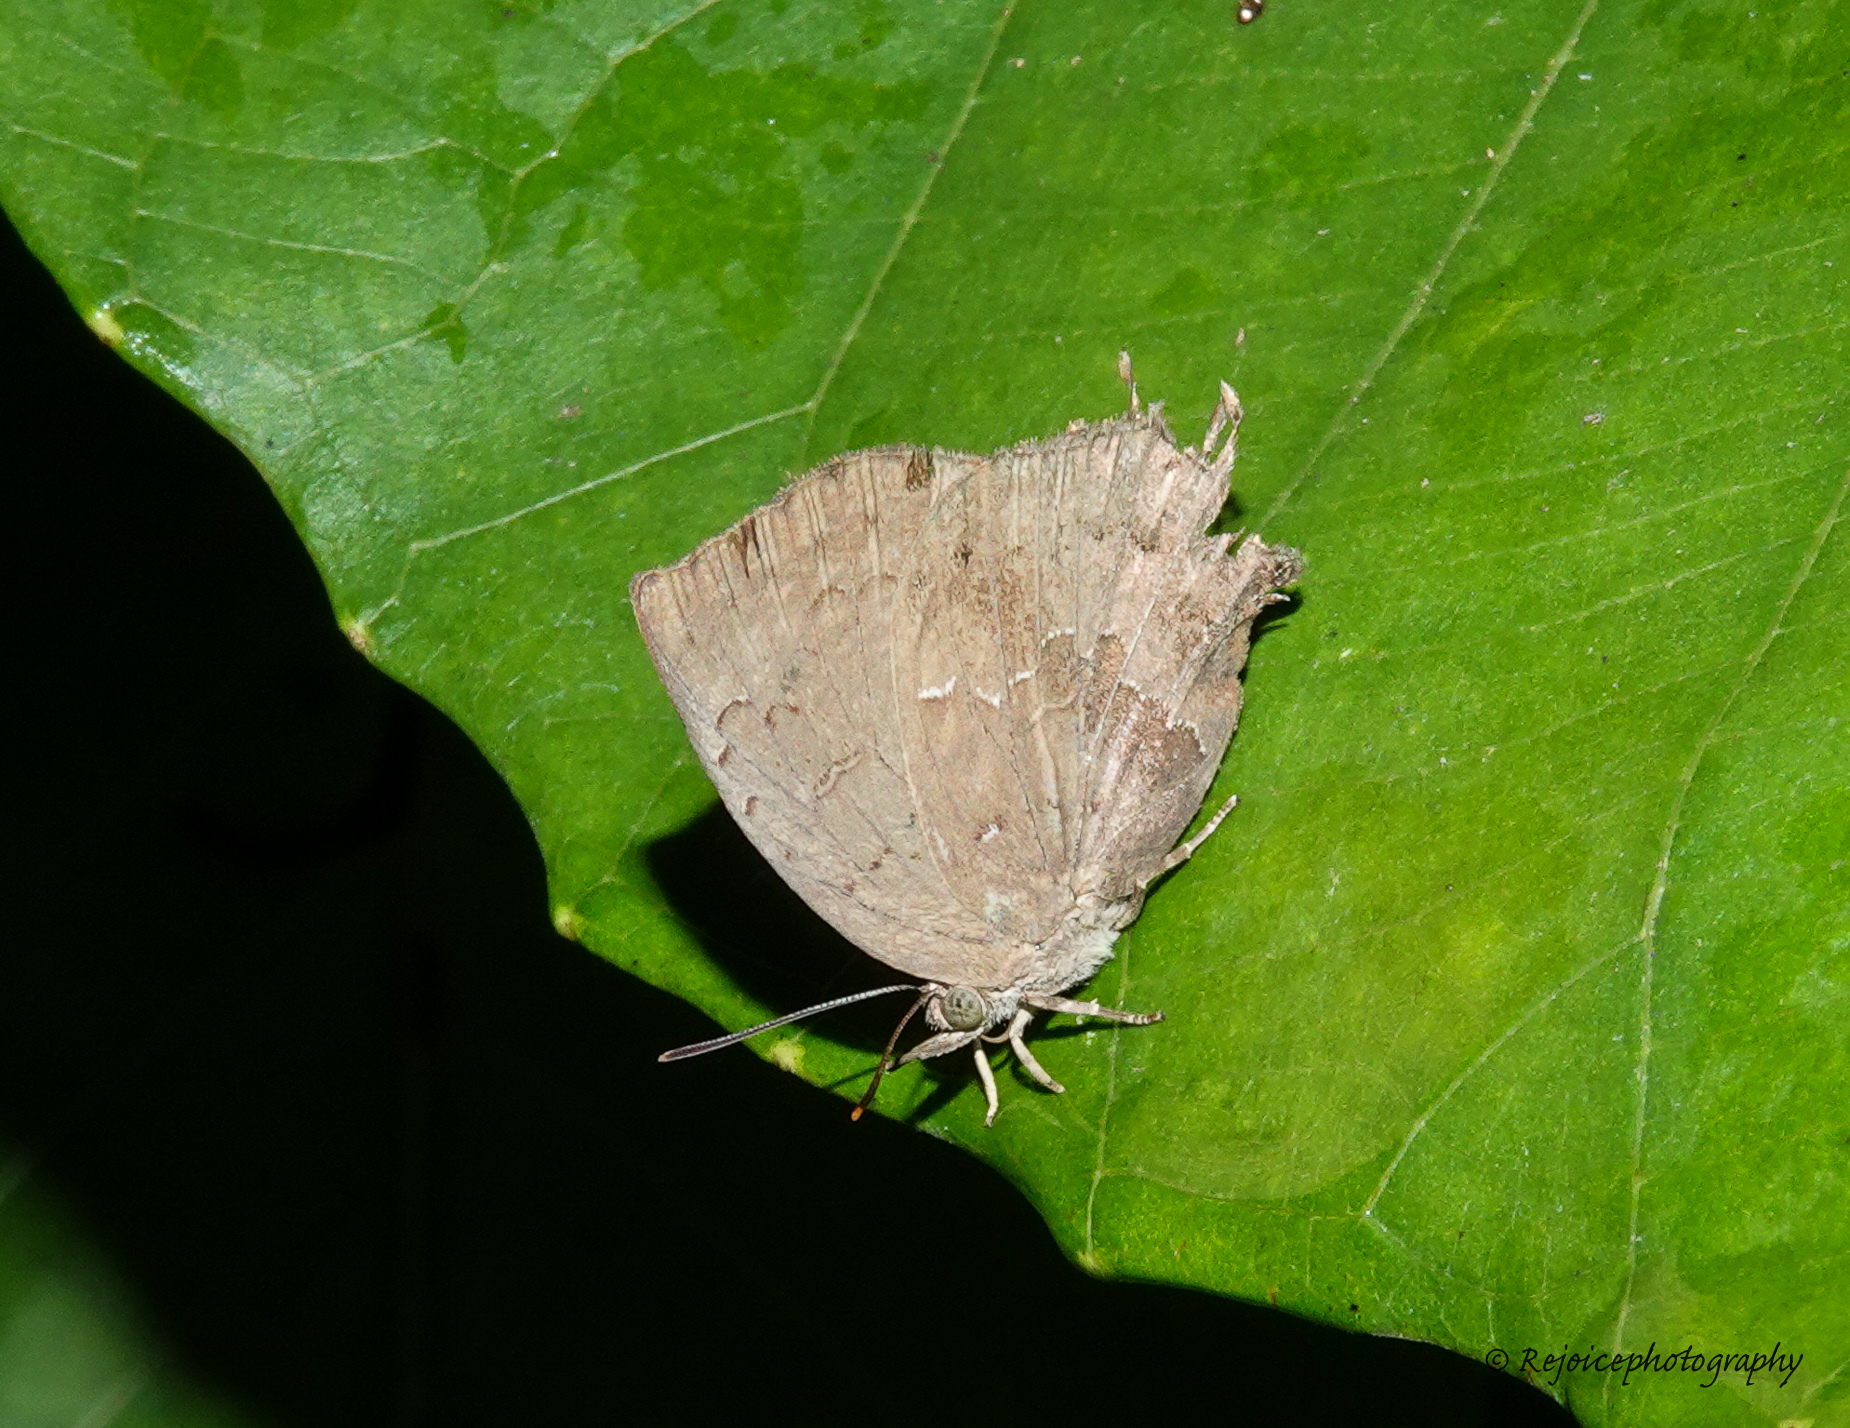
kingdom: Animalia
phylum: Arthropoda
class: Insecta
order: Lepidoptera
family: Lycaenidae
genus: Surendra
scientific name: Surendra quercetorum
